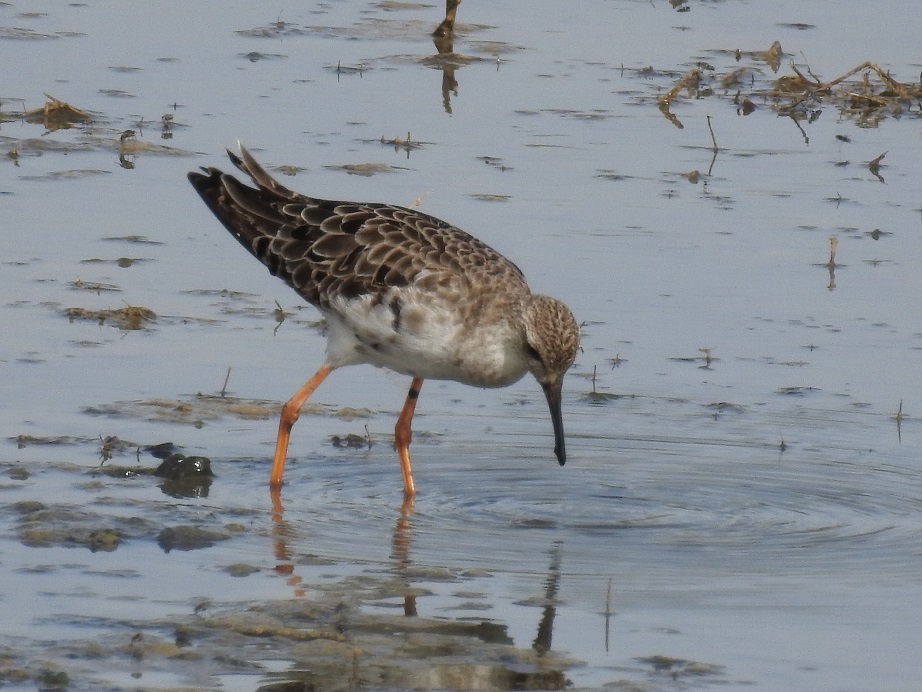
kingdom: Animalia
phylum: Chordata
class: Aves
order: Charadriiformes
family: Scolopacidae
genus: Calidris
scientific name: Calidris pugnax
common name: Ruff
